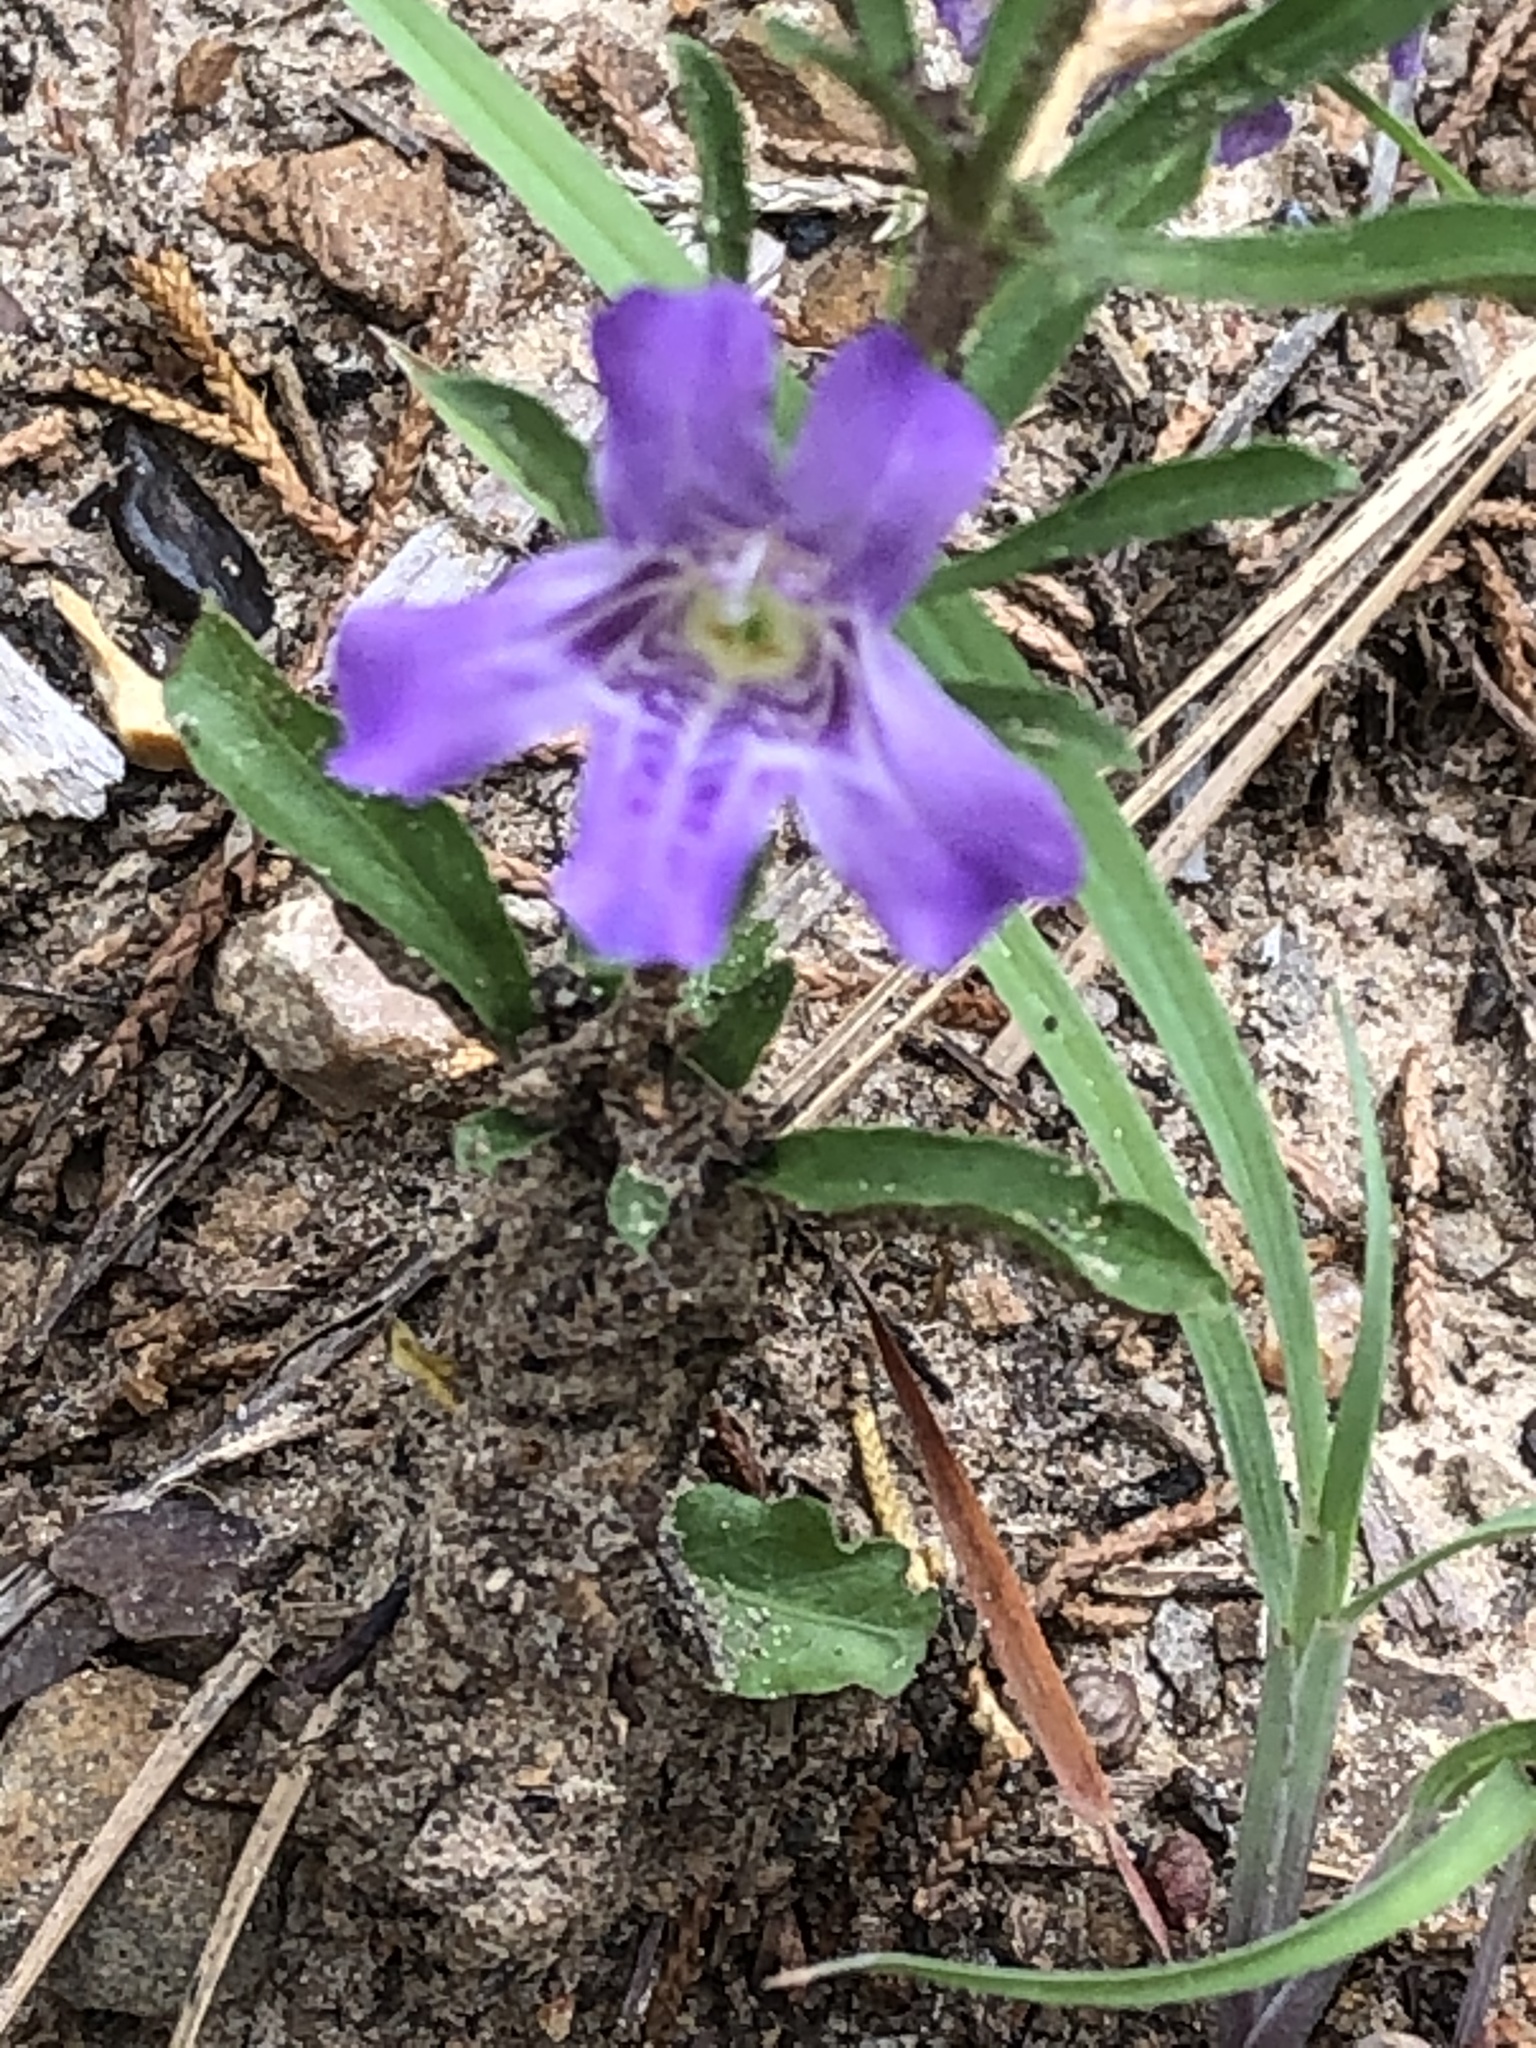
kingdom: Plantae
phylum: Tracheophyta
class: Magnoliopsida
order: Lamiales
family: Acanthaceae
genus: Dyschoriste
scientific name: Dyschoriste linearis
